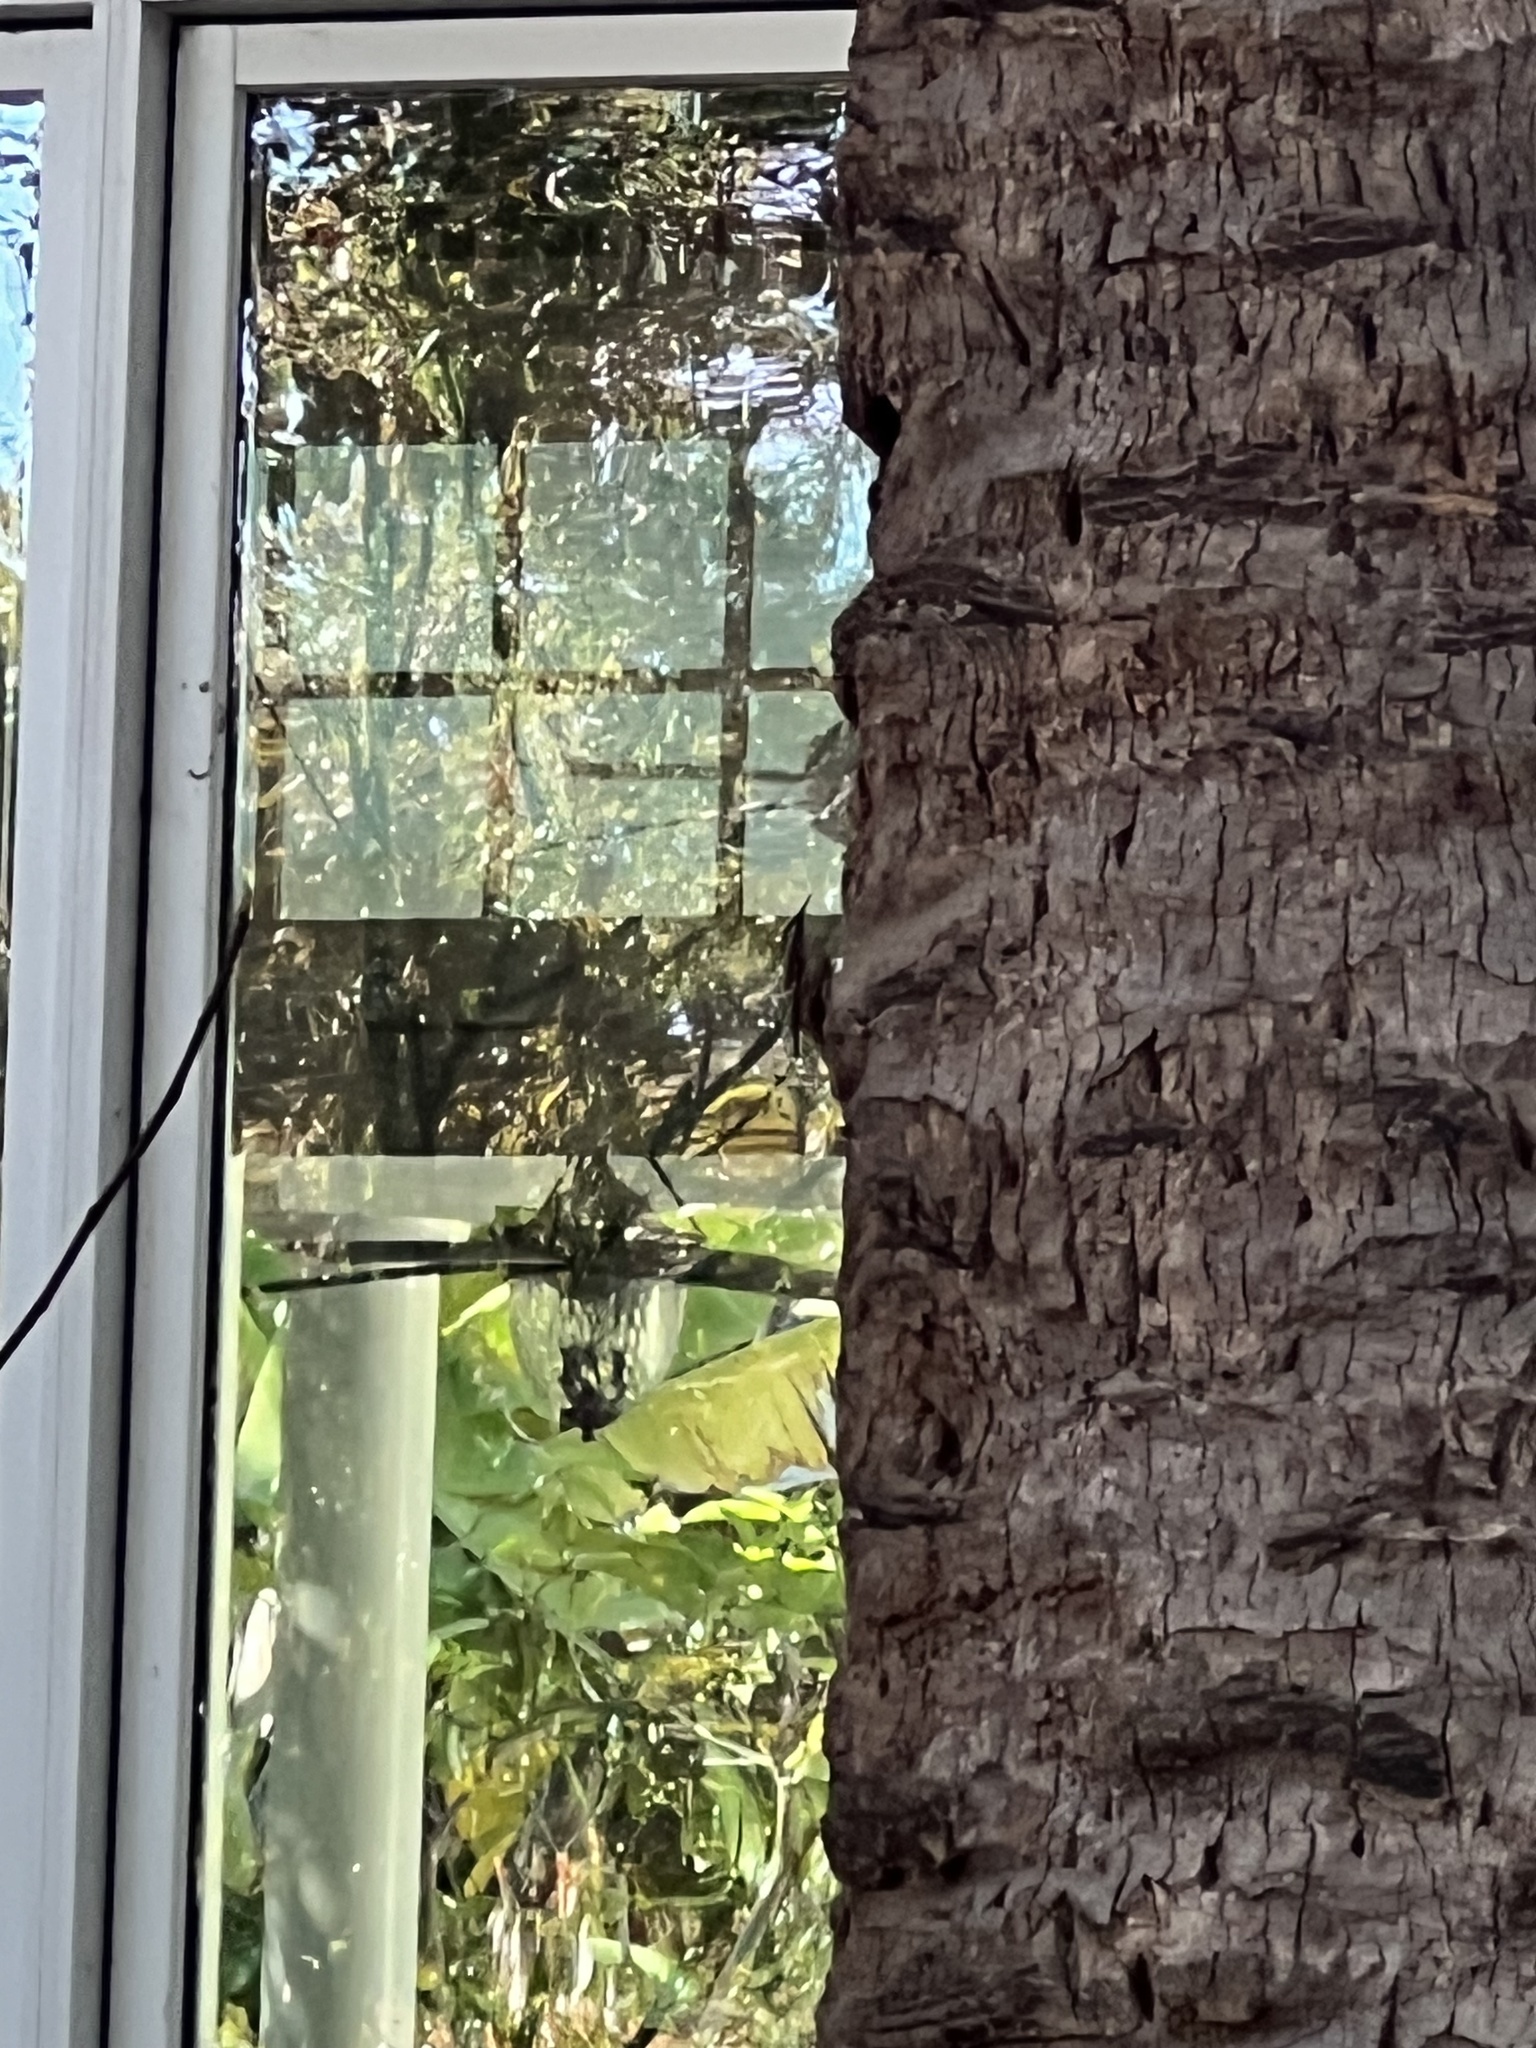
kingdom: Animalia
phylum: Chordata
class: Aves
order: Passeriformes
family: Certhiidae
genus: Certhia
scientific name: Certhia americana
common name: Brown creeper
